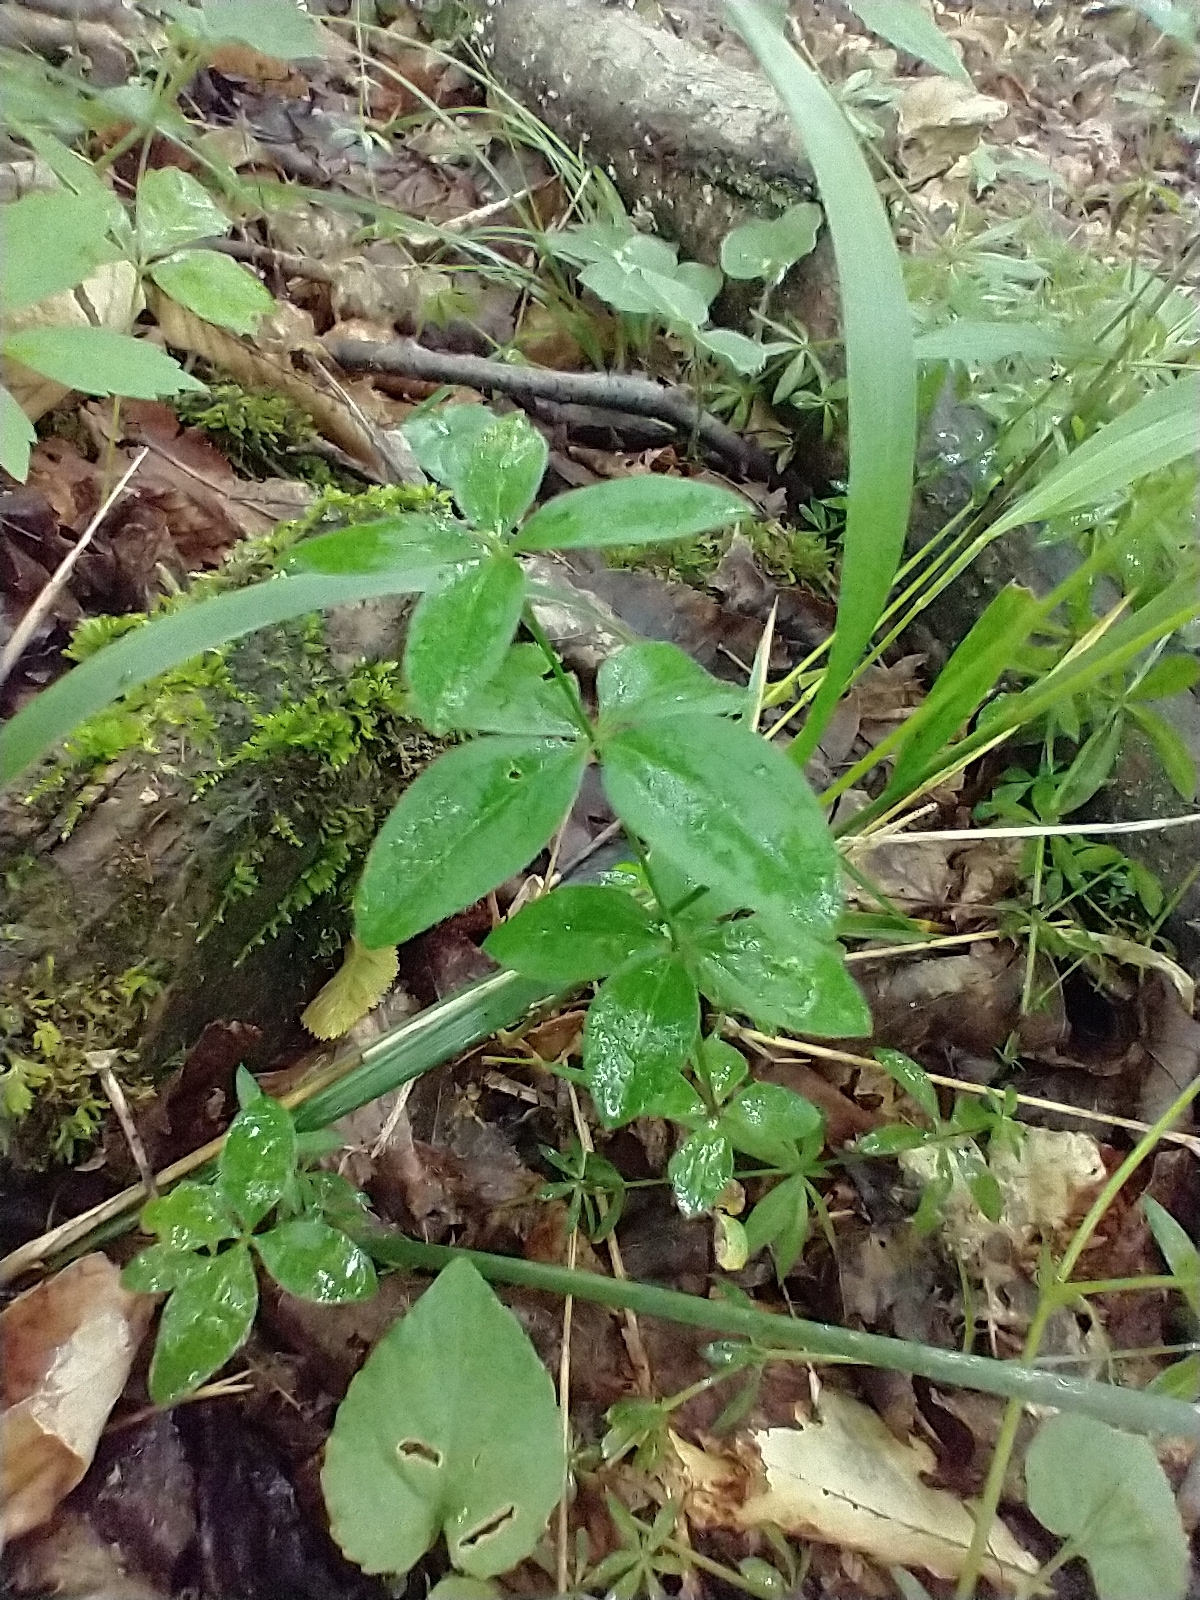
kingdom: Plantae
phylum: Tracheophyta
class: Magnoliopsida
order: Gentianales
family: Rubiaceae
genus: Galium
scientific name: Galium circaezans
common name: Forest bedstraw
